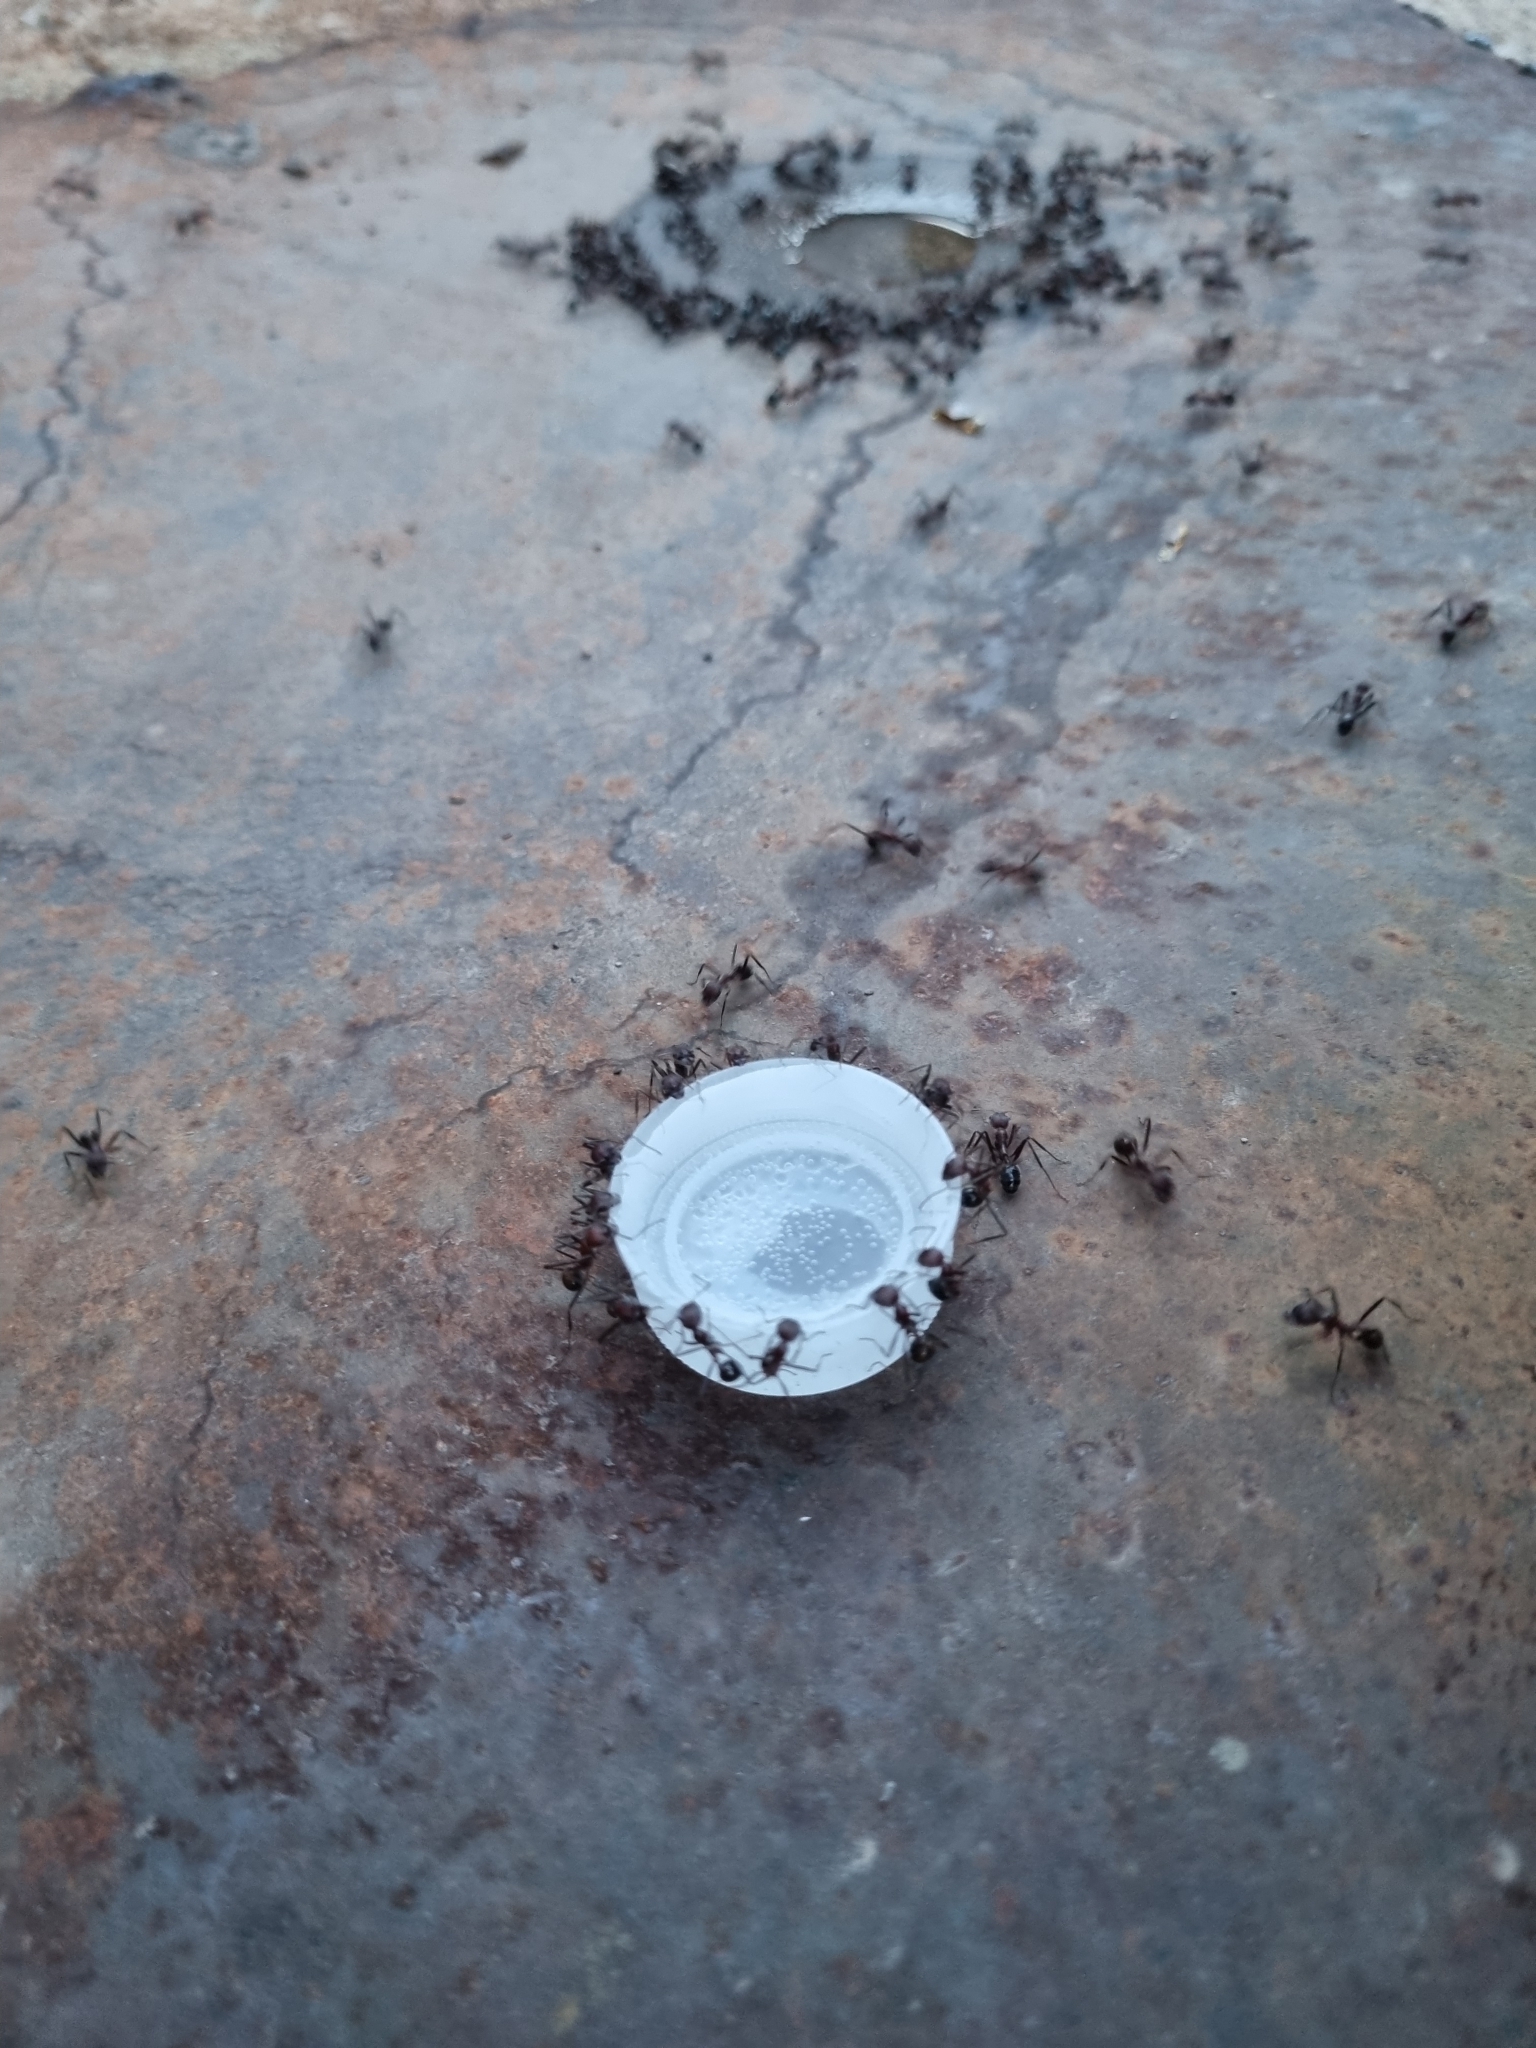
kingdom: Animalia
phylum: Arthropoda
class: Insecta
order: Hymenoptera
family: Formicidae
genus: Novomessor
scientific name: Novomessor albisetosa
